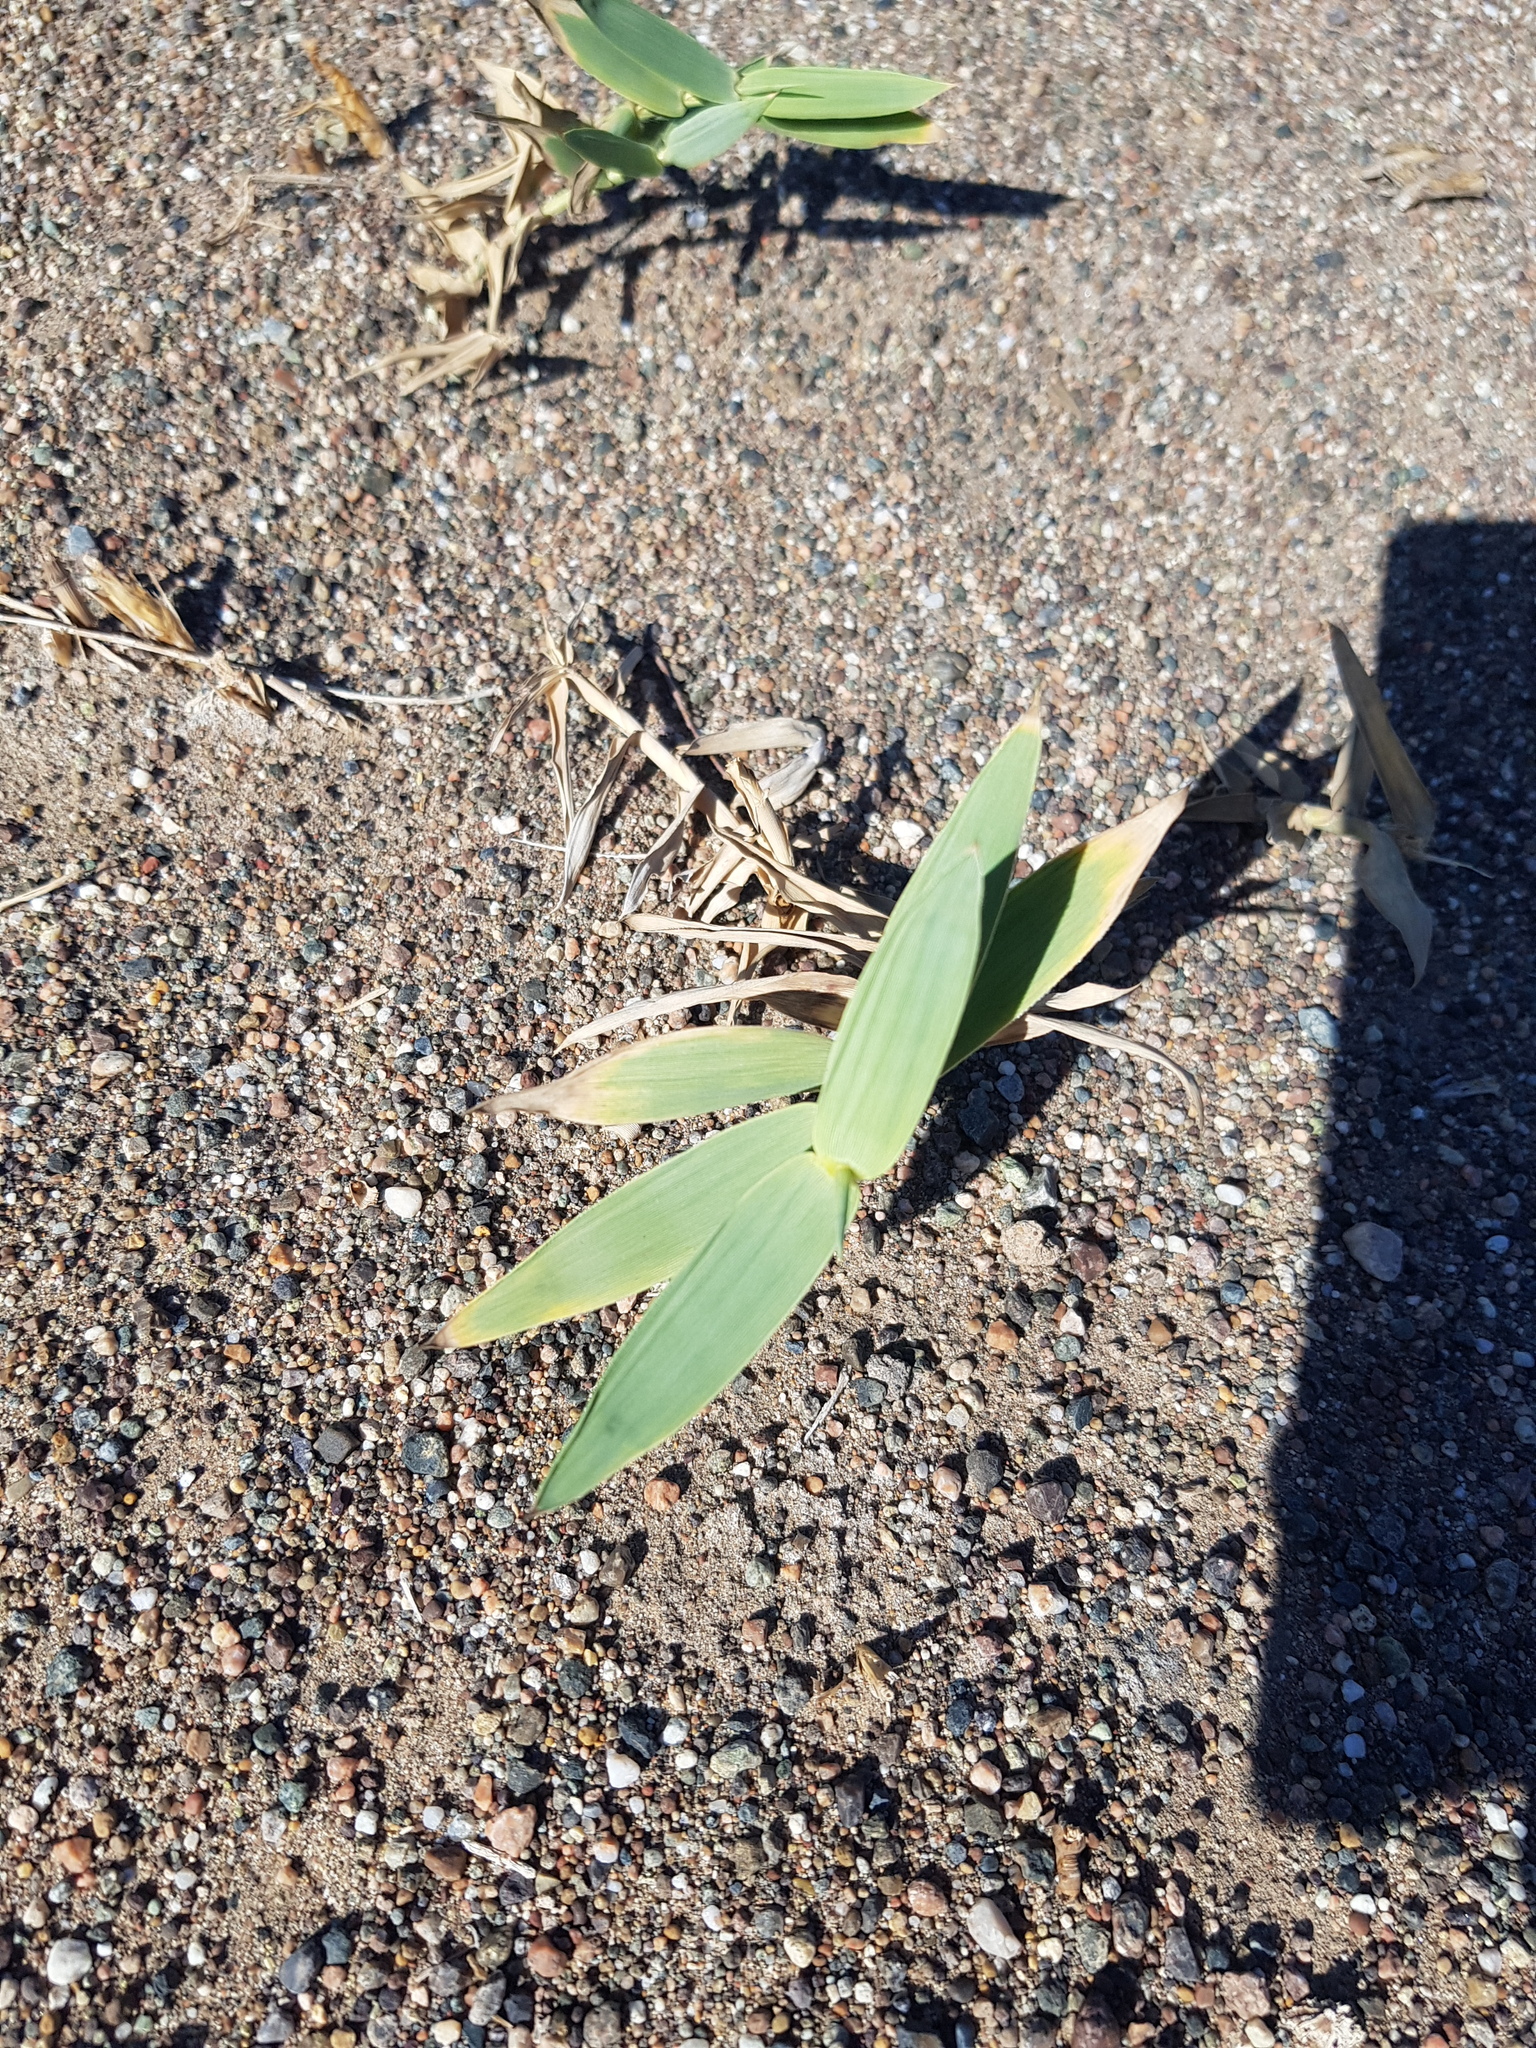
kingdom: Plantae
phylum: Tracheophyta
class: Liliopsida
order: Poales
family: Poaceae
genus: Phragmites
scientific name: Phragmites australis
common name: Common reed
